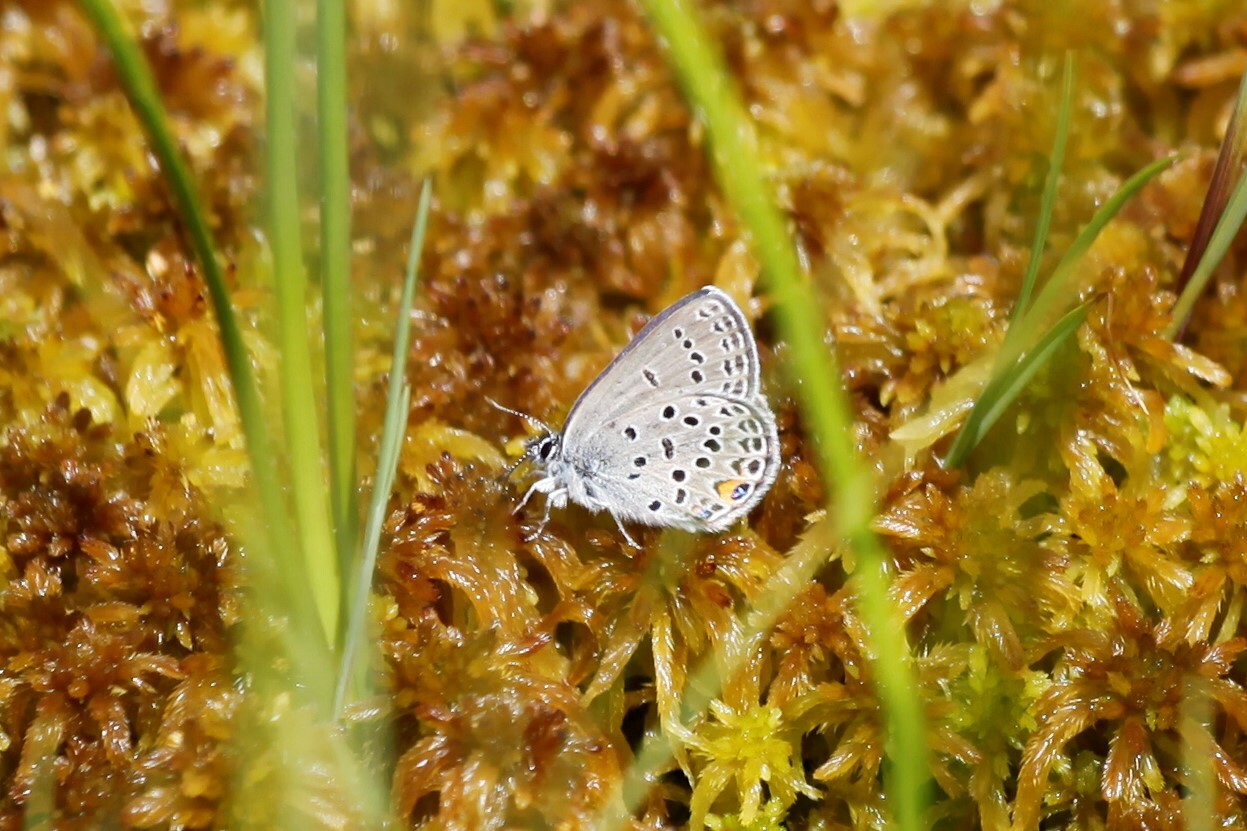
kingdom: Animalia
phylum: Arthropoda
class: Insecta
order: Lepidoptera
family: Lycaenidae
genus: Vacciniina
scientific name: Vacciniina optilete
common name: Cranberry blue
